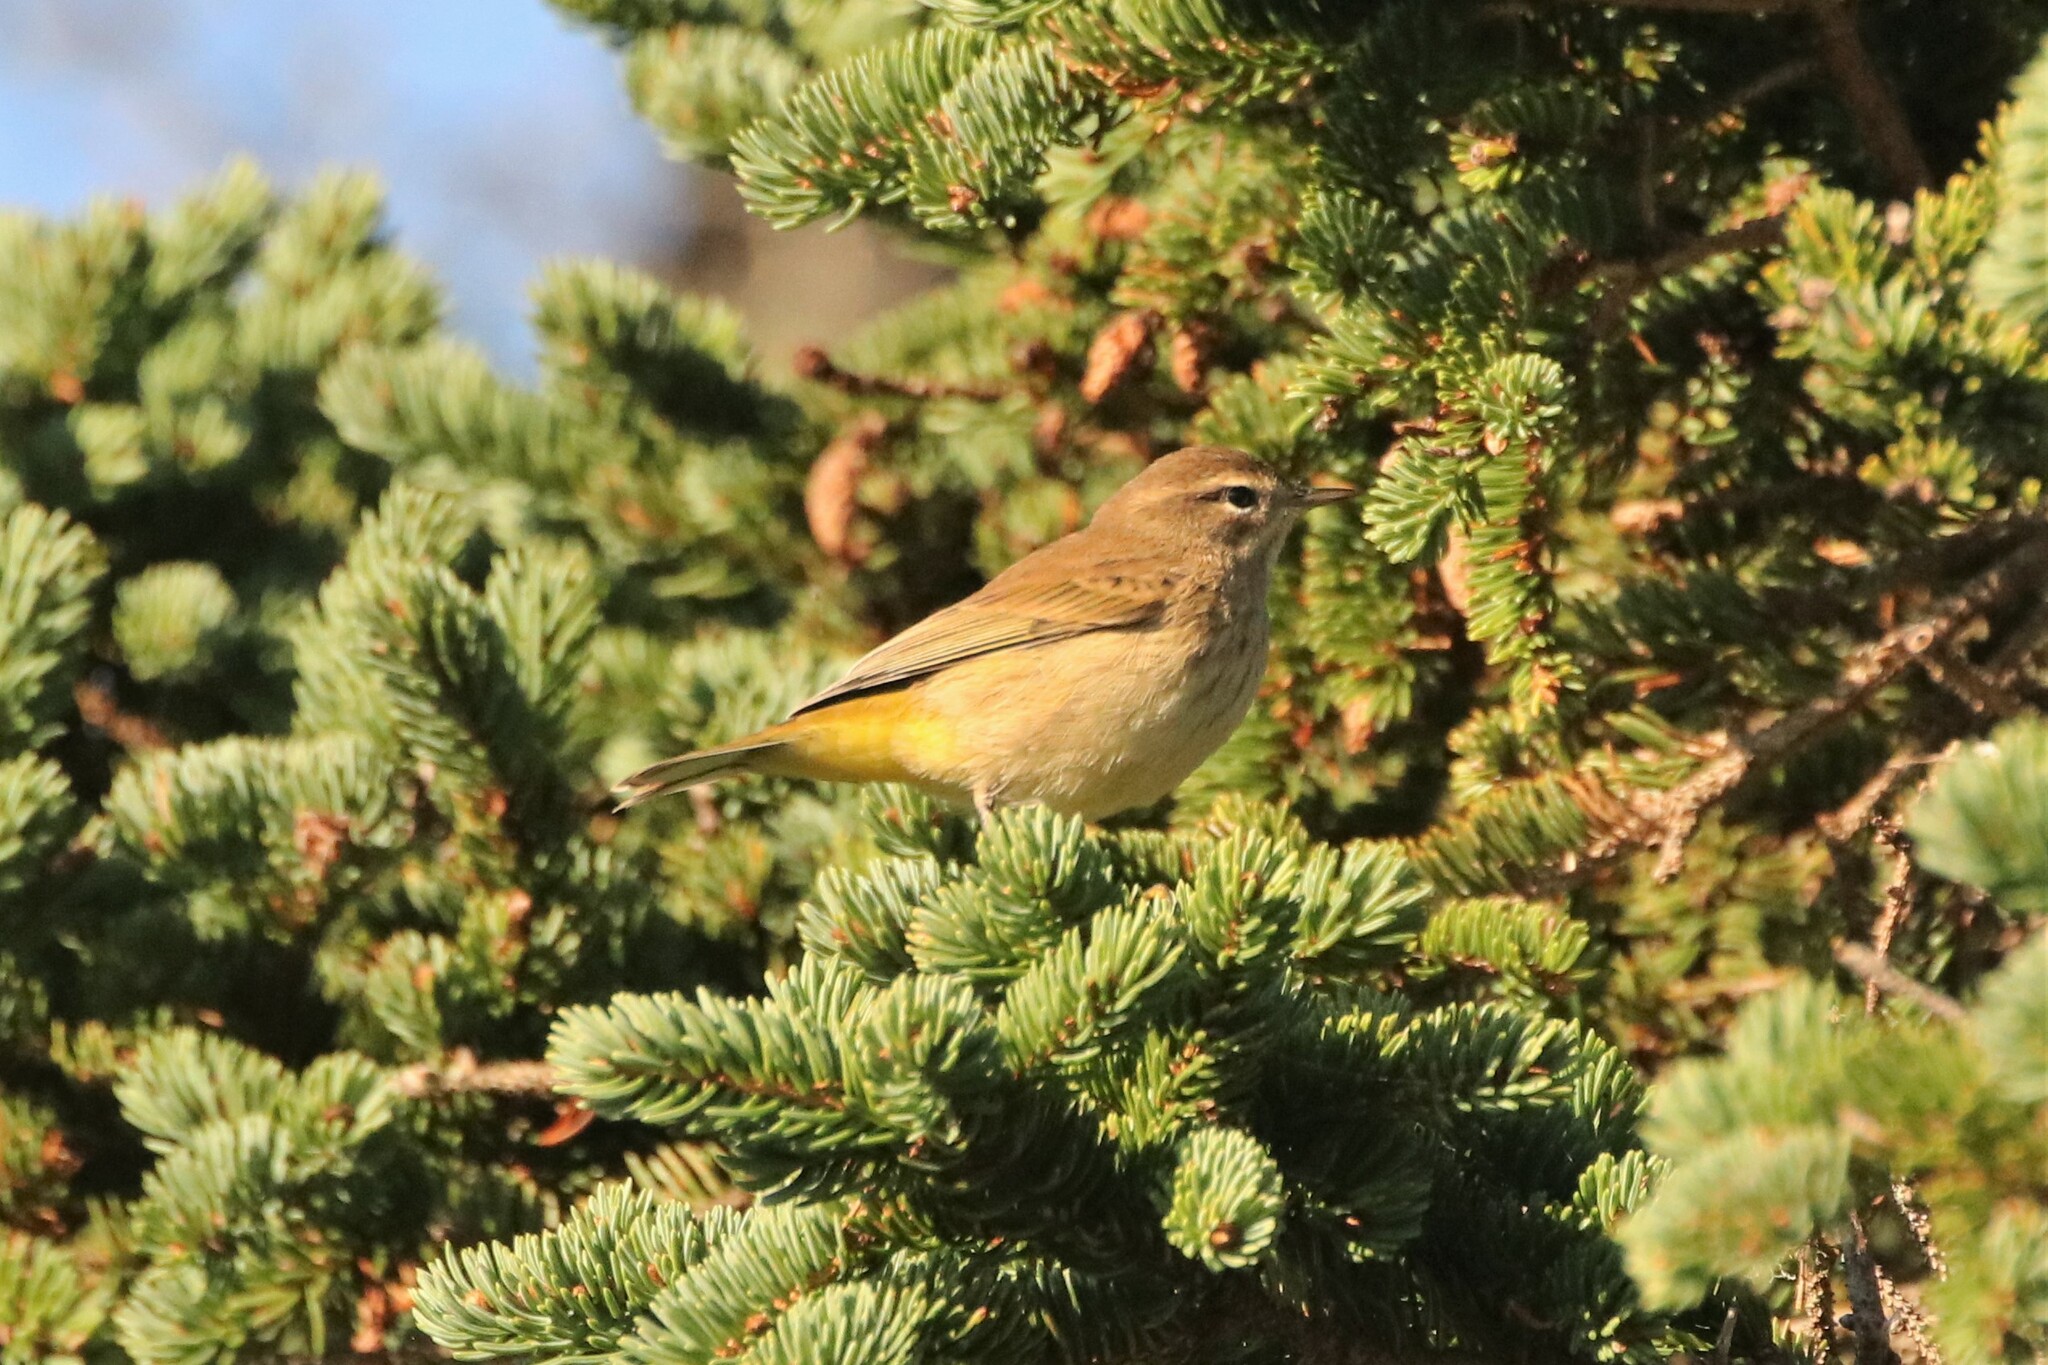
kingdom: Animalia
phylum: Chordata
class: Aves
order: Passeriformes
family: Parulidae
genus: Setophaga
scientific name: Setophaga palmarum
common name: Palm warbler
